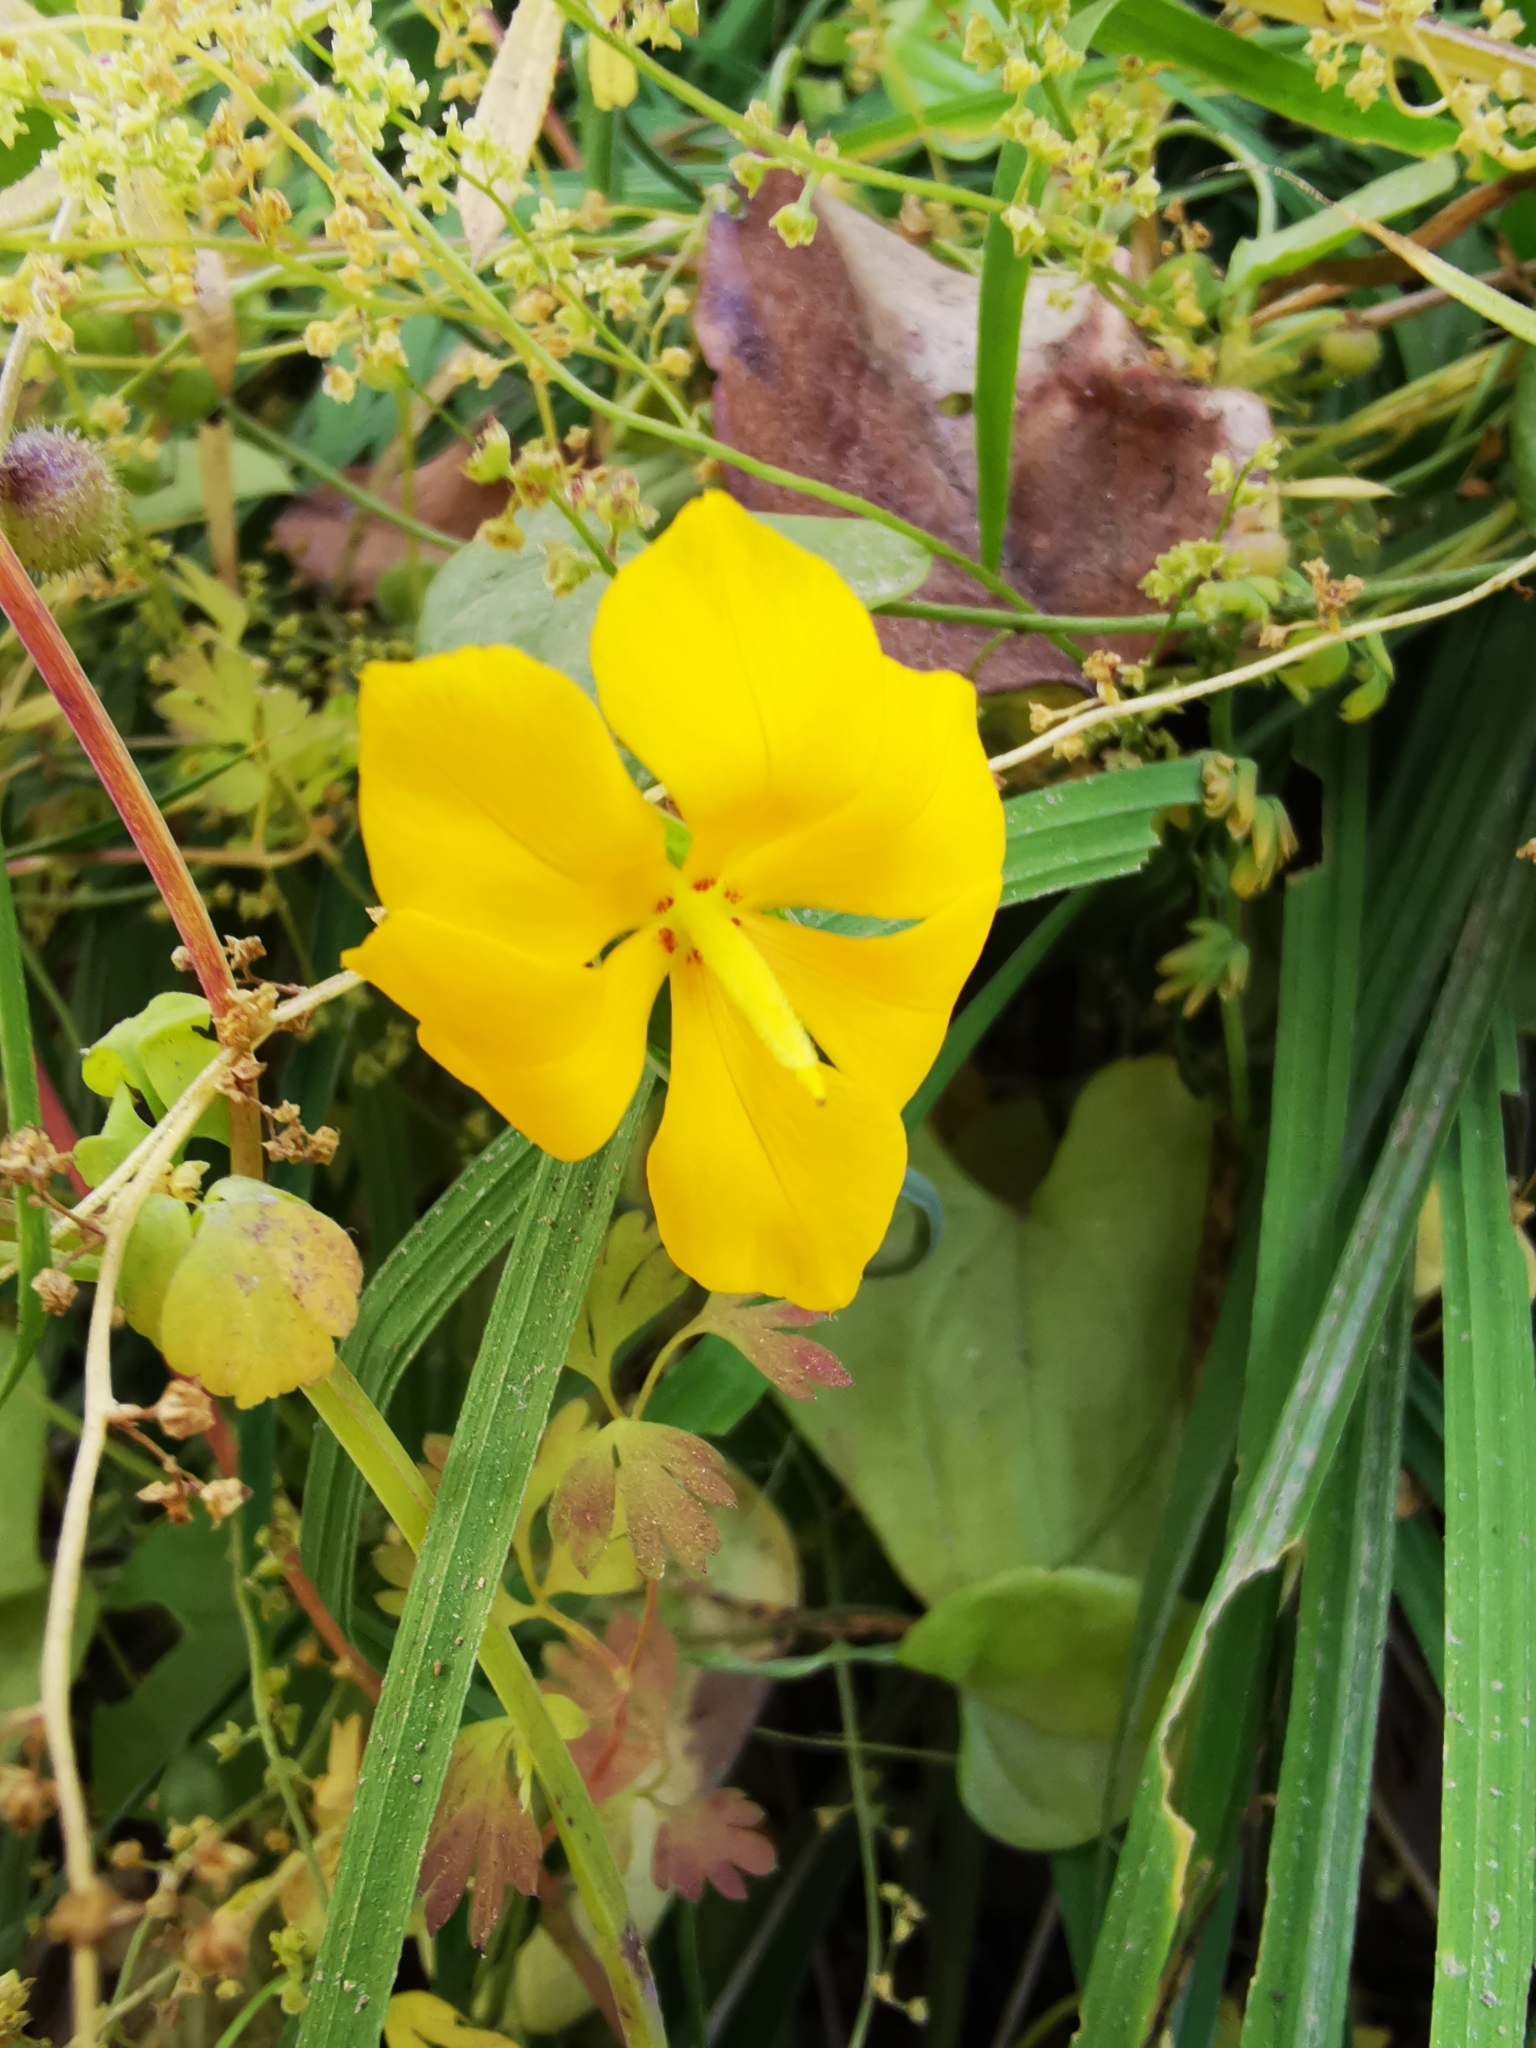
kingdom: Plantae
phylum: Tracheophyta
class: Liliopsida
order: Asparagales
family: Iridaceae
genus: Solenomelus
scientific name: Solenomelus pedunculatus
